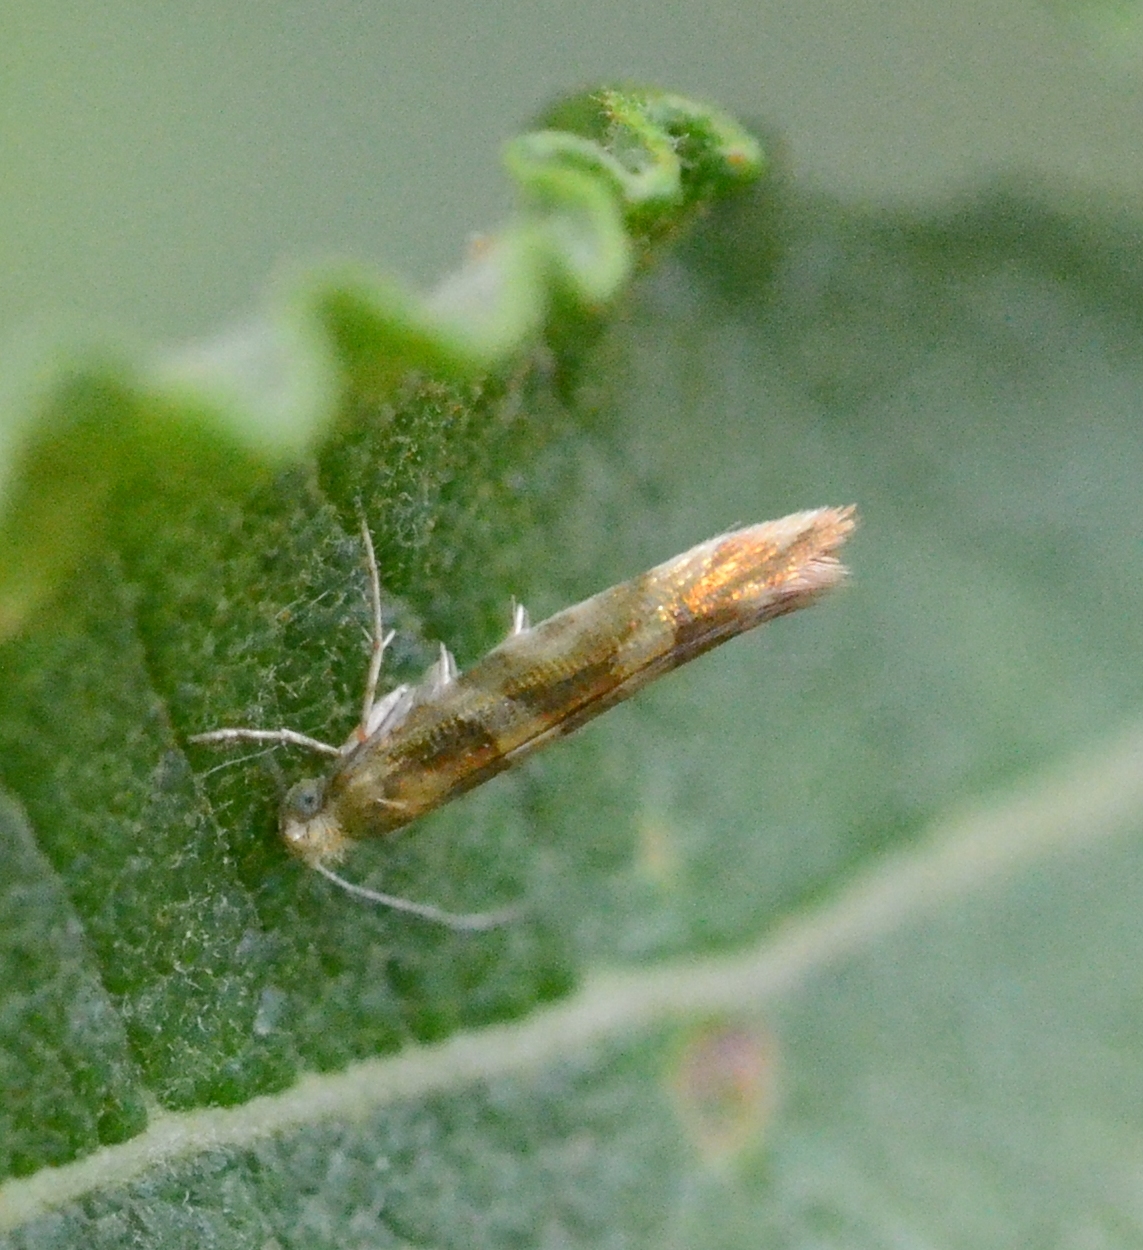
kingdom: Animalia
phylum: Arthropoda
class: Insecta
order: Lepidoptera
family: Argyresthiidae
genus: Argyresthia
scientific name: Argyresthia goedartella
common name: Golden argent
